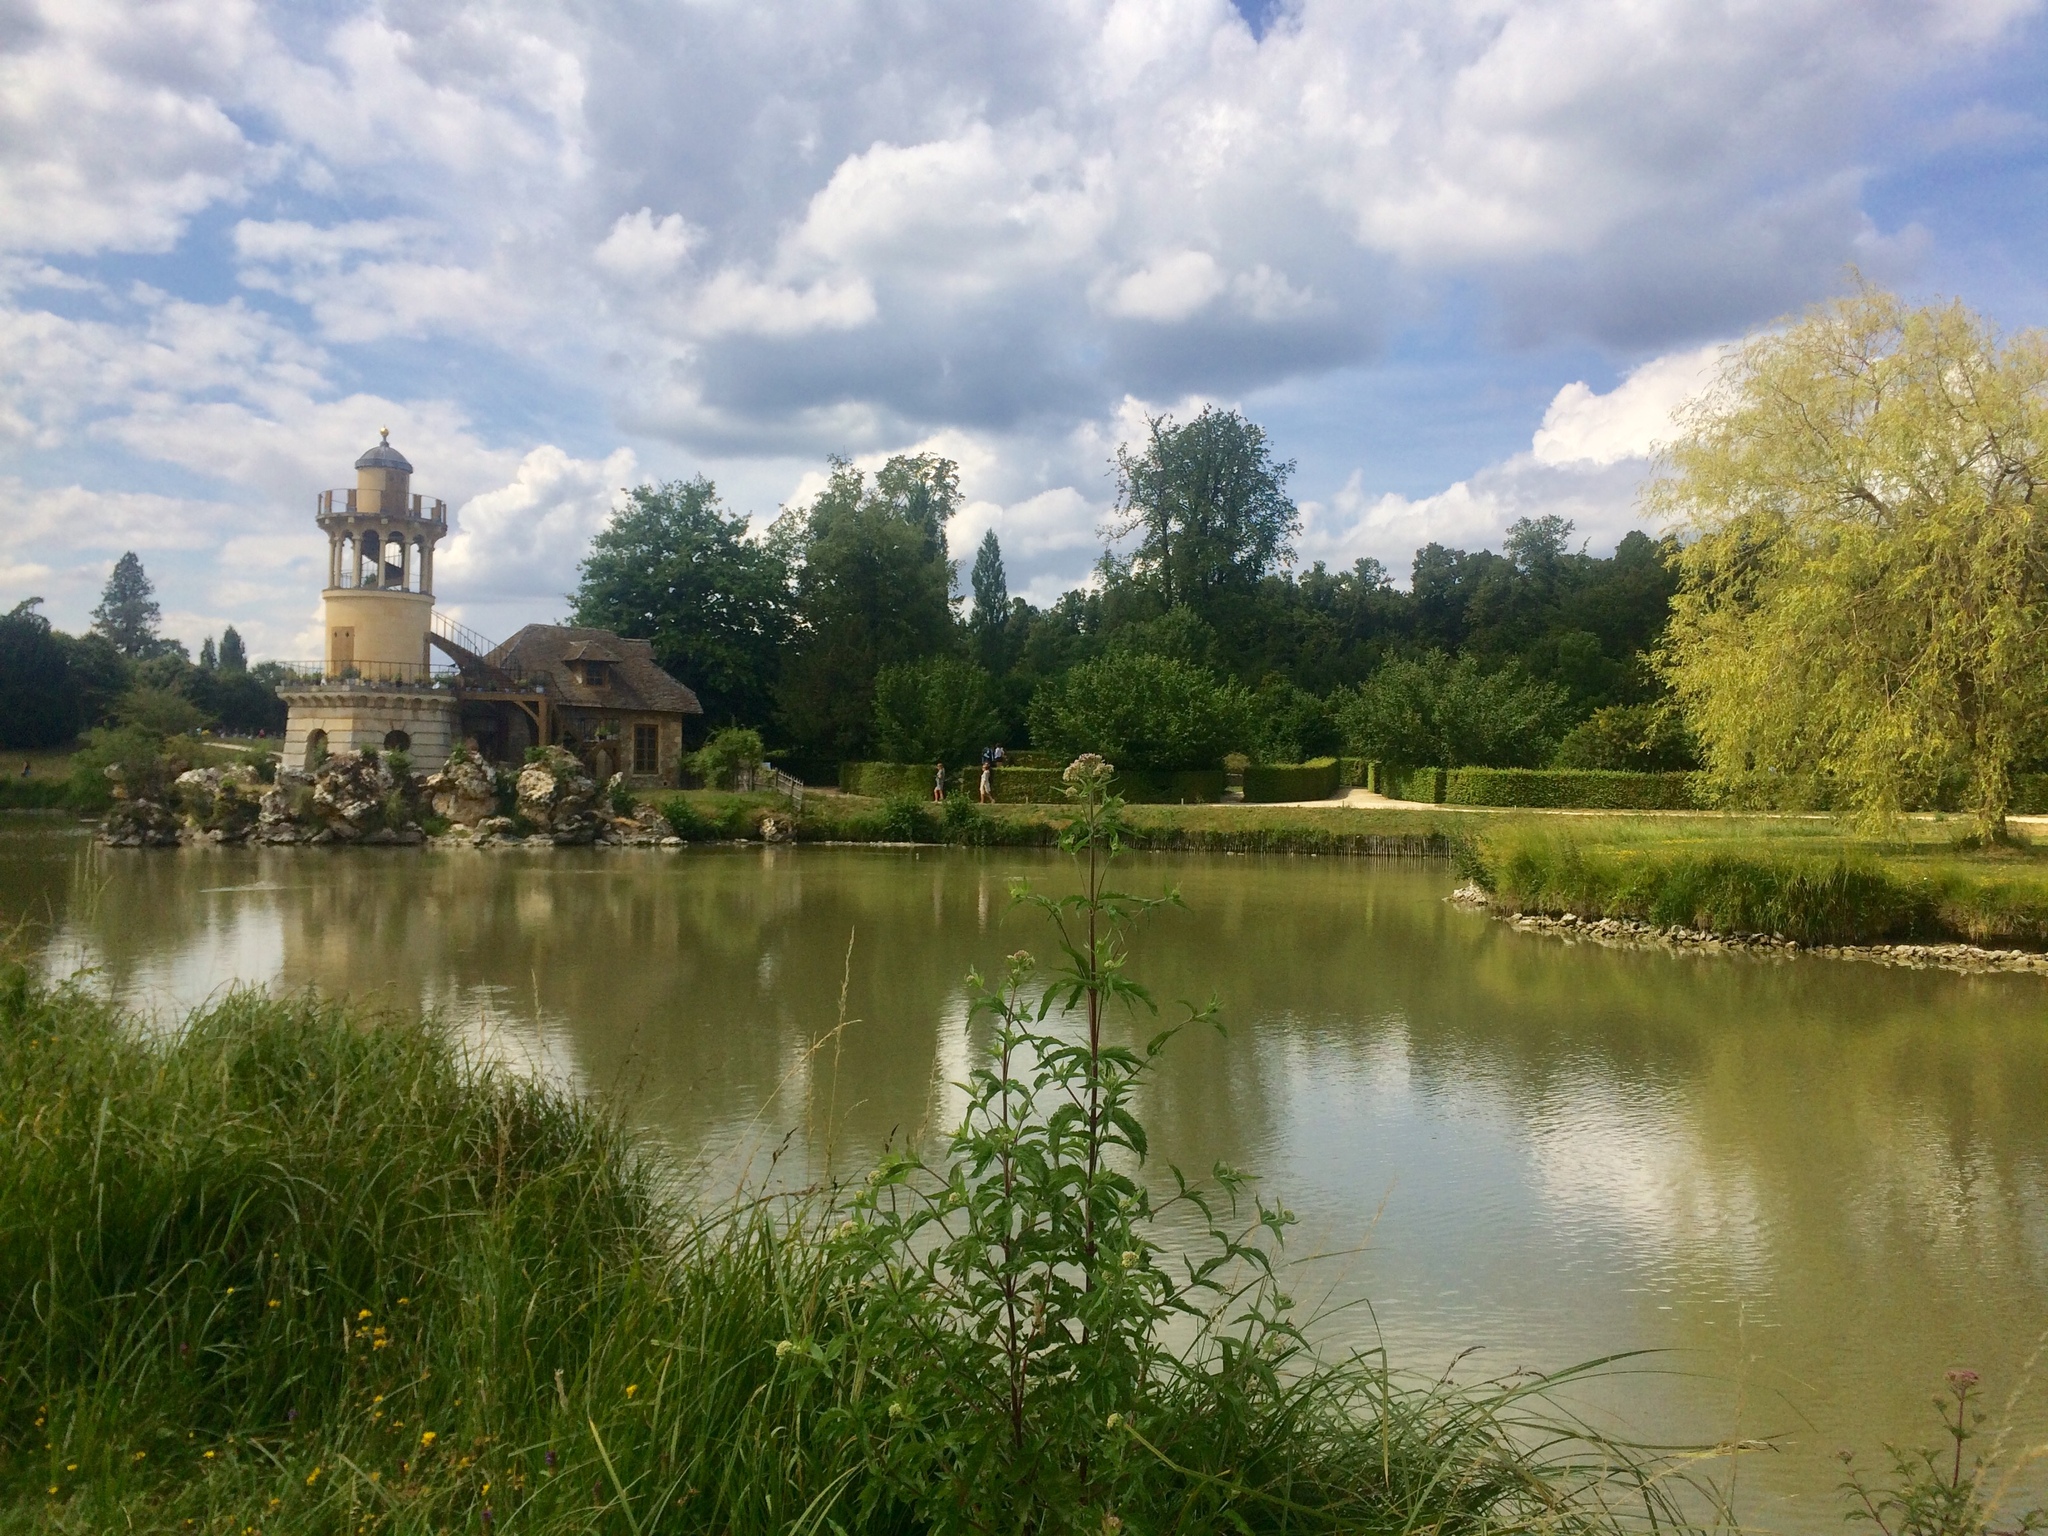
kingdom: Plantae
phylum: Tracheophyta
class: Magnoliopsida
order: Asterales
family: Asteraceae
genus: Eupatorium
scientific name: Eupatorium cannabinum
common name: Hemp-agrimony
